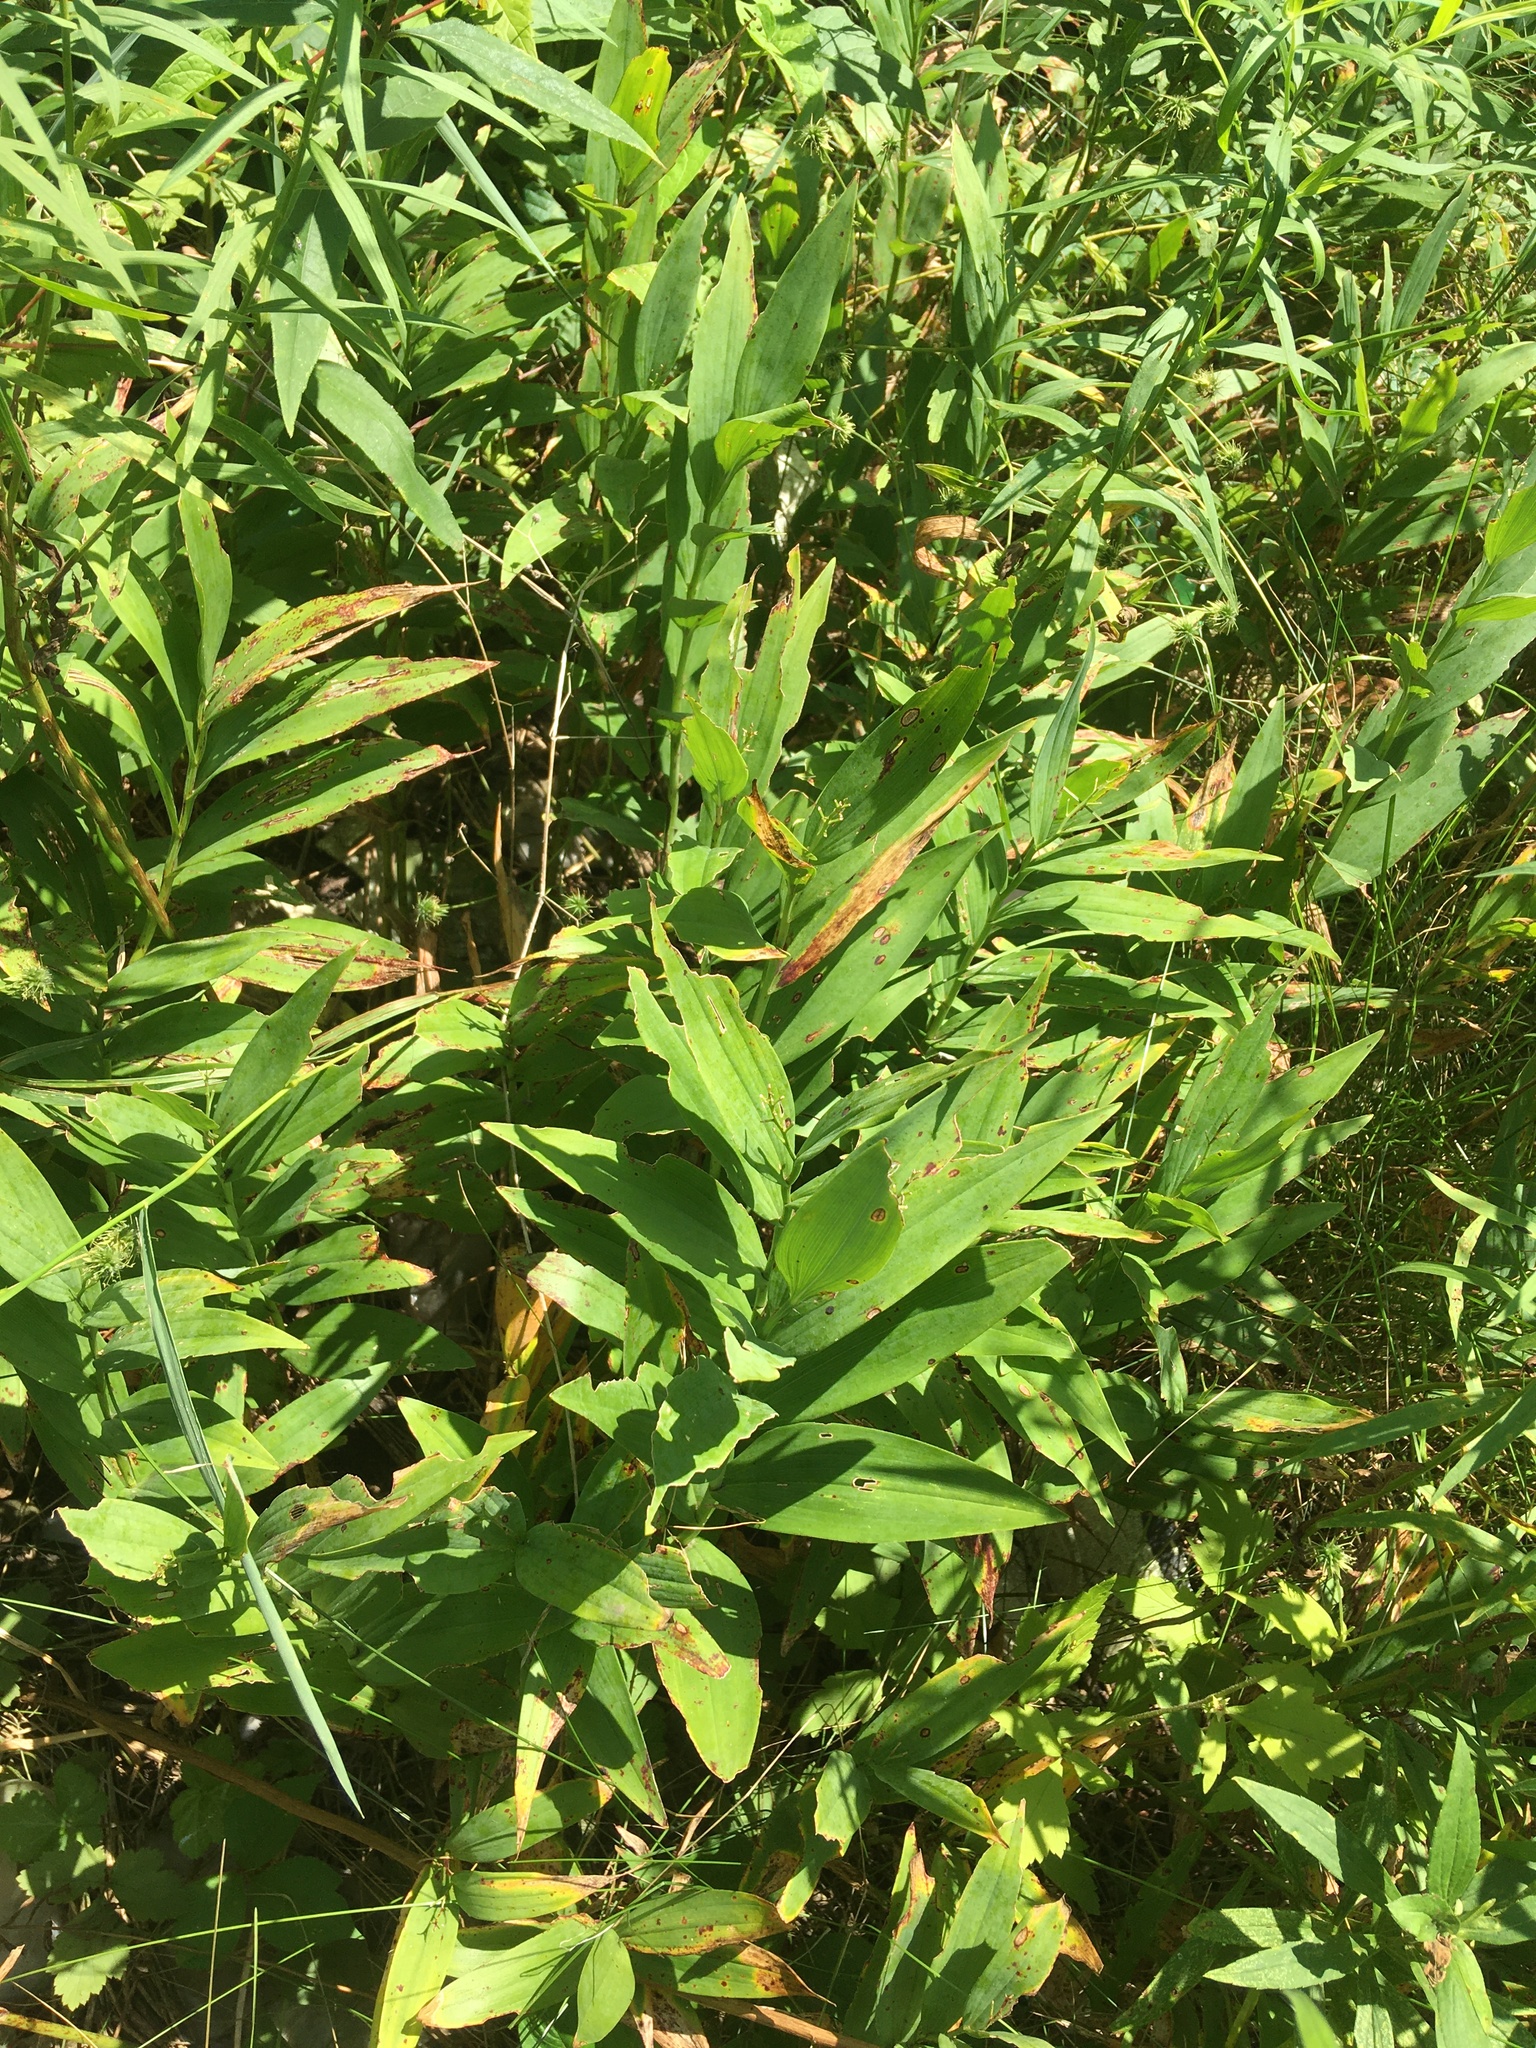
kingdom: Plantae
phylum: Tracheophyta
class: Liliopsida
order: Asparagales
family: Asparagaceae
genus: Maianthemum
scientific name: Maianthemum stellatum
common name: Little false solomon's seal
